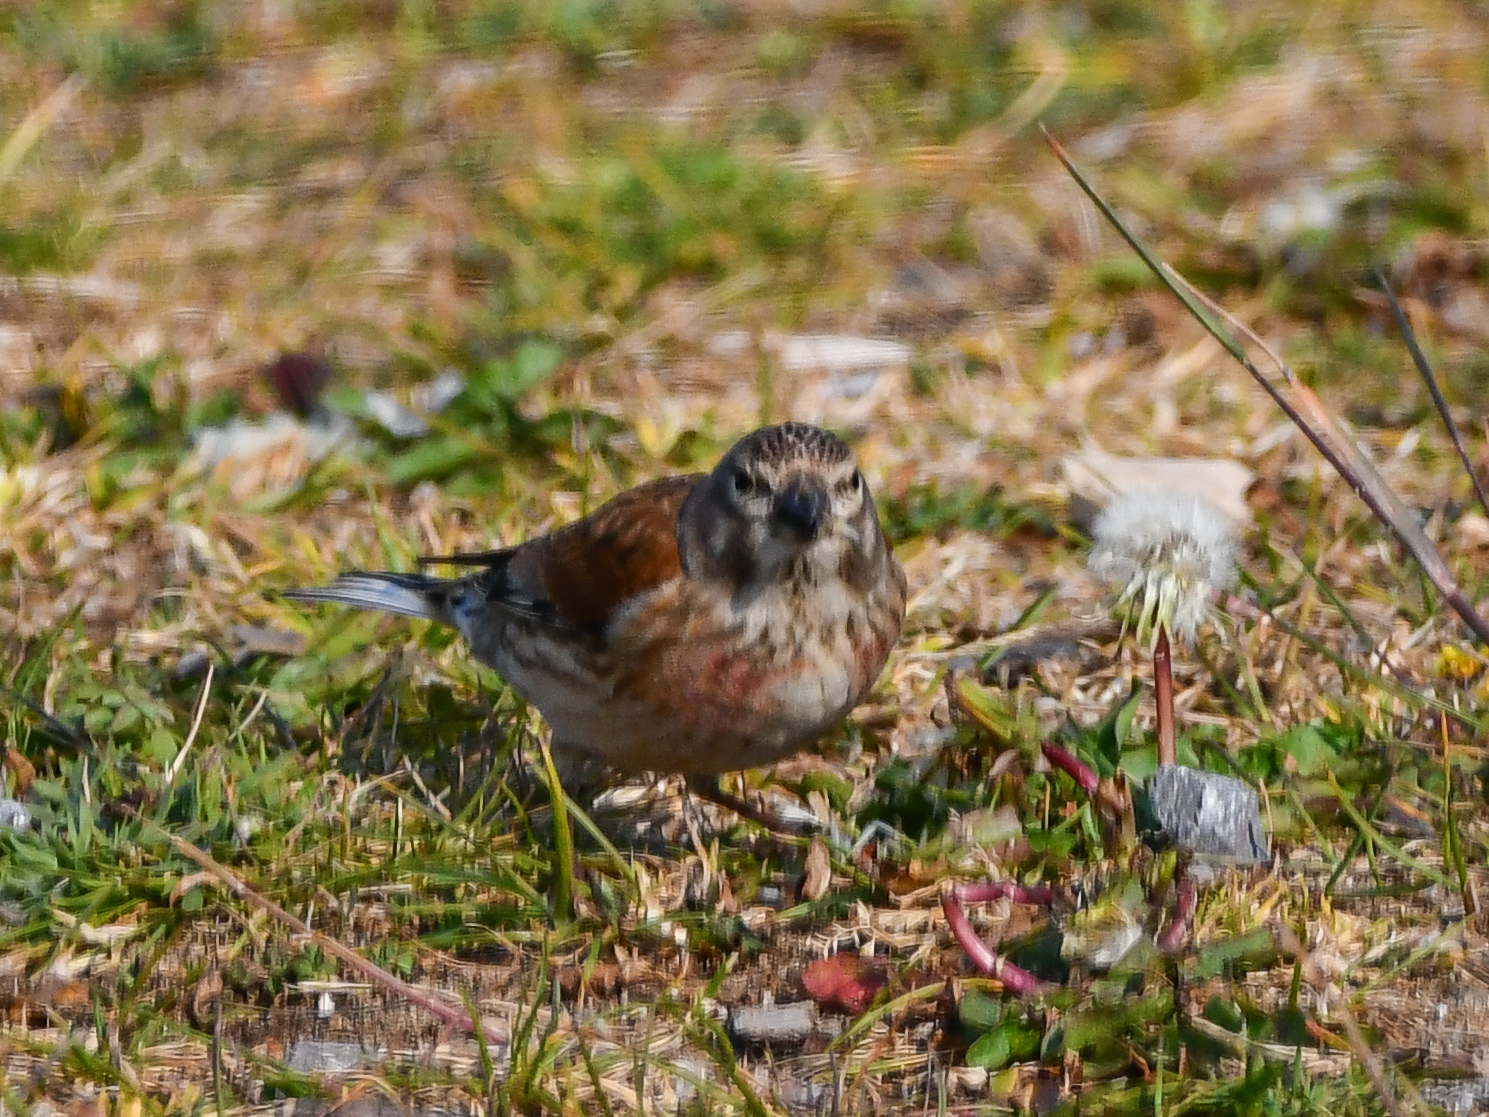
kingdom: Animalia
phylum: Chordata
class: Aves
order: Passeriformes
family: Fringillidae
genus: Linaria
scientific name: Linaria cannabina
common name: Common linnet
